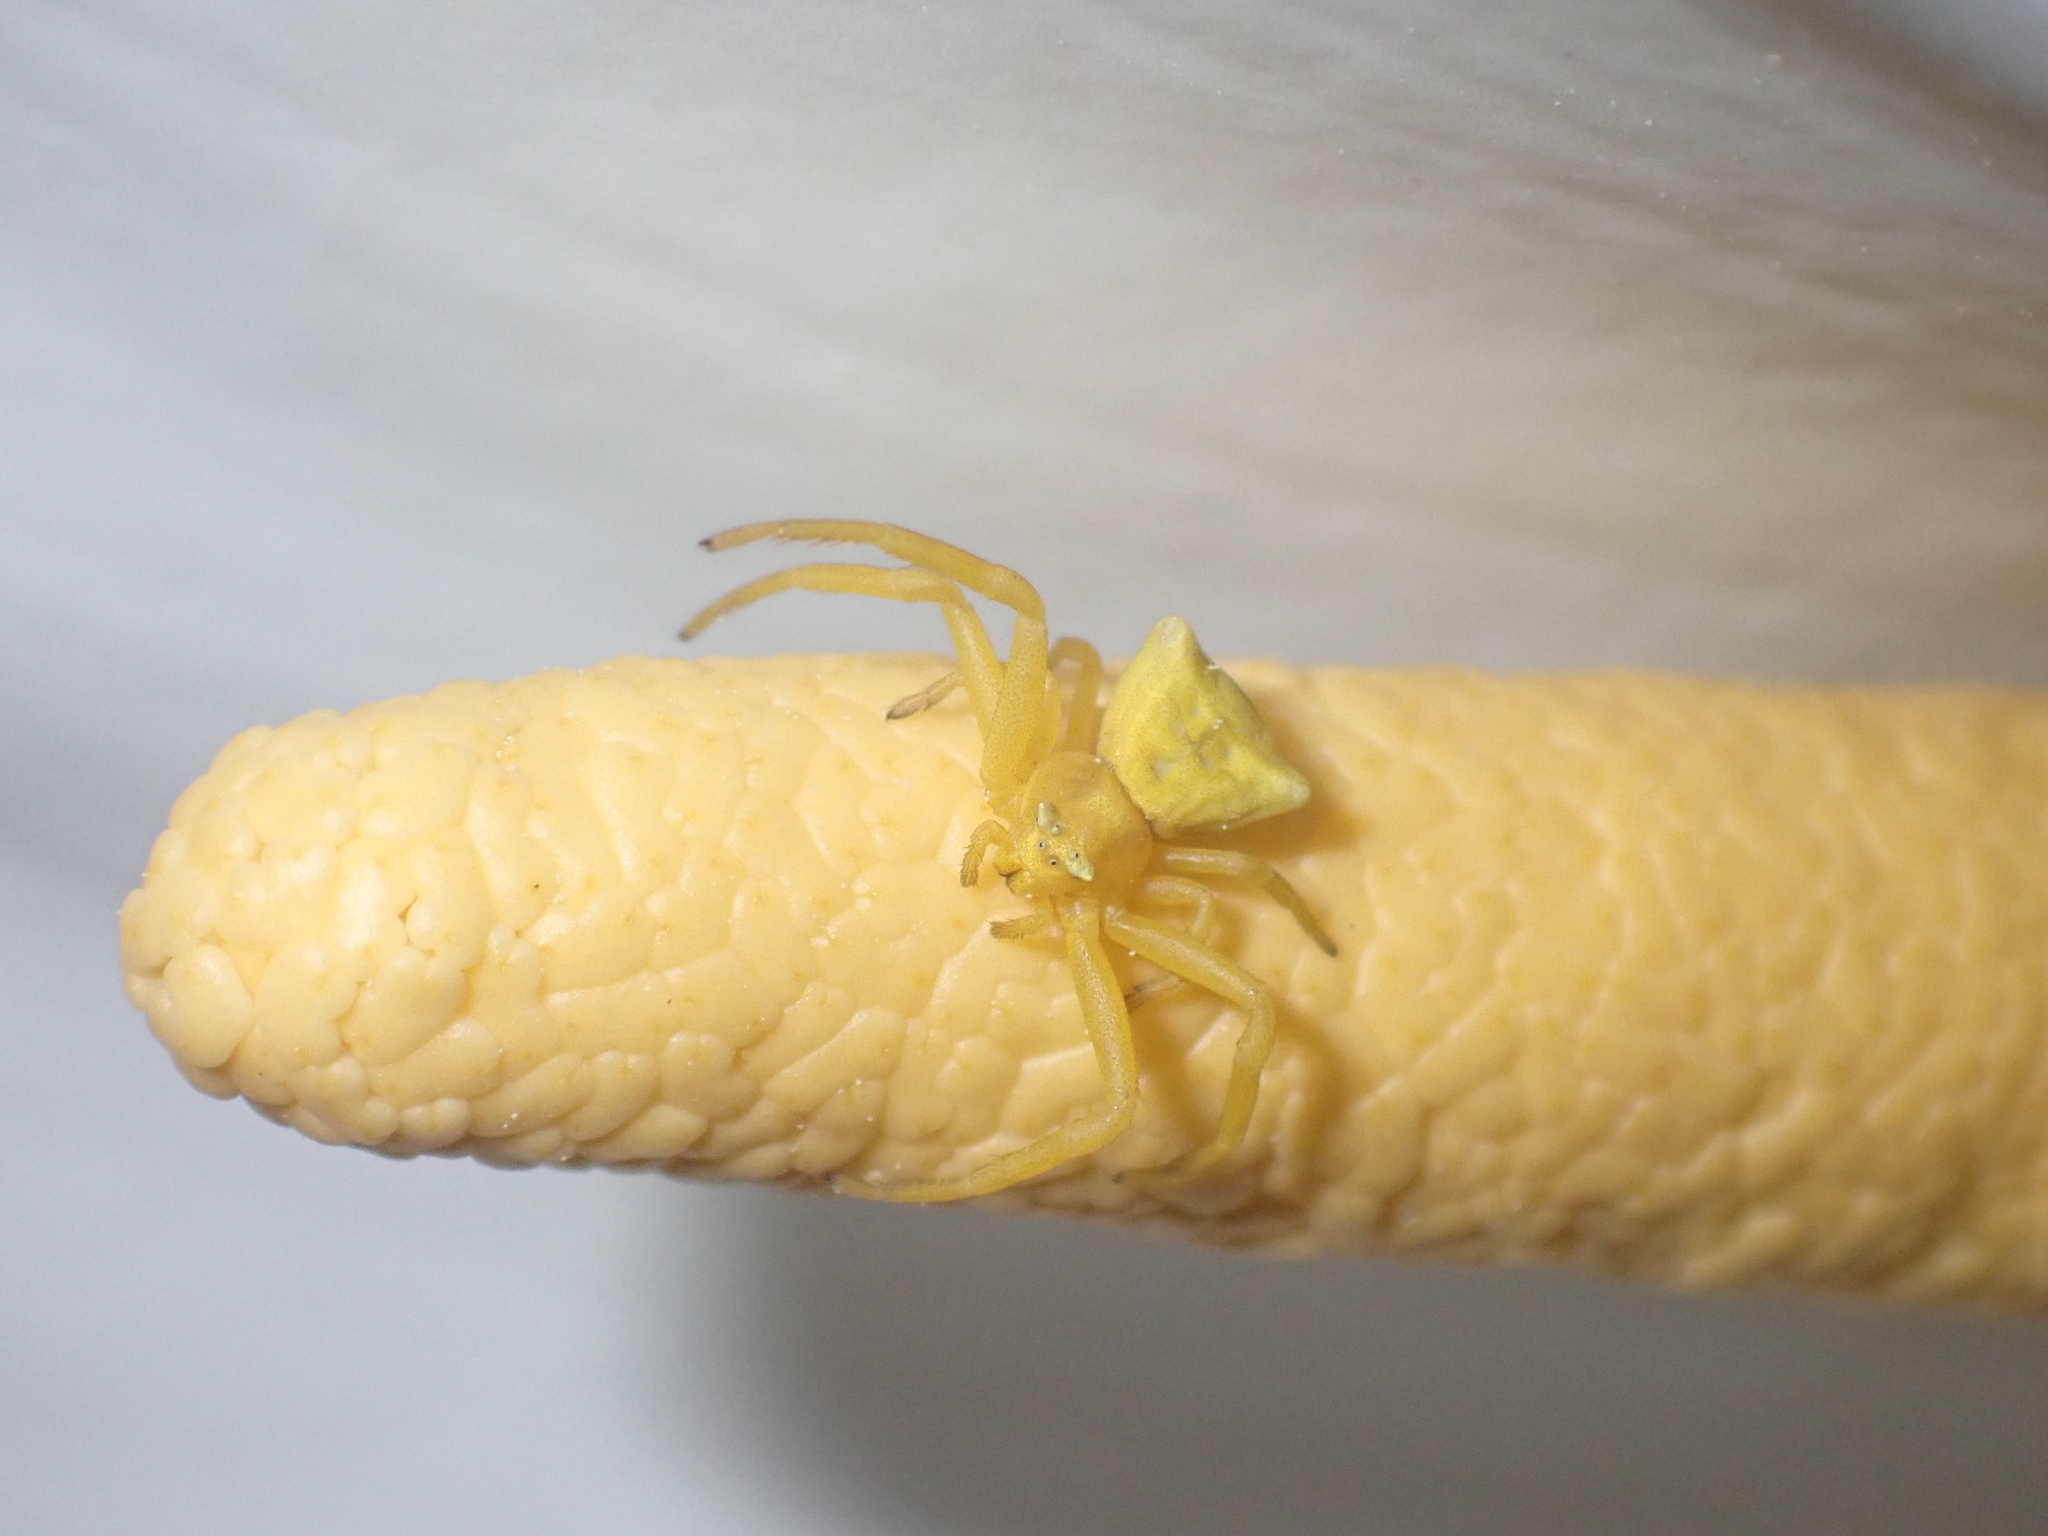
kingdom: Animalia
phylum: Arthropoda
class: Arachnida
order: Araneae
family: Thomisidae
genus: Thomisus
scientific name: Thomisus onustus
